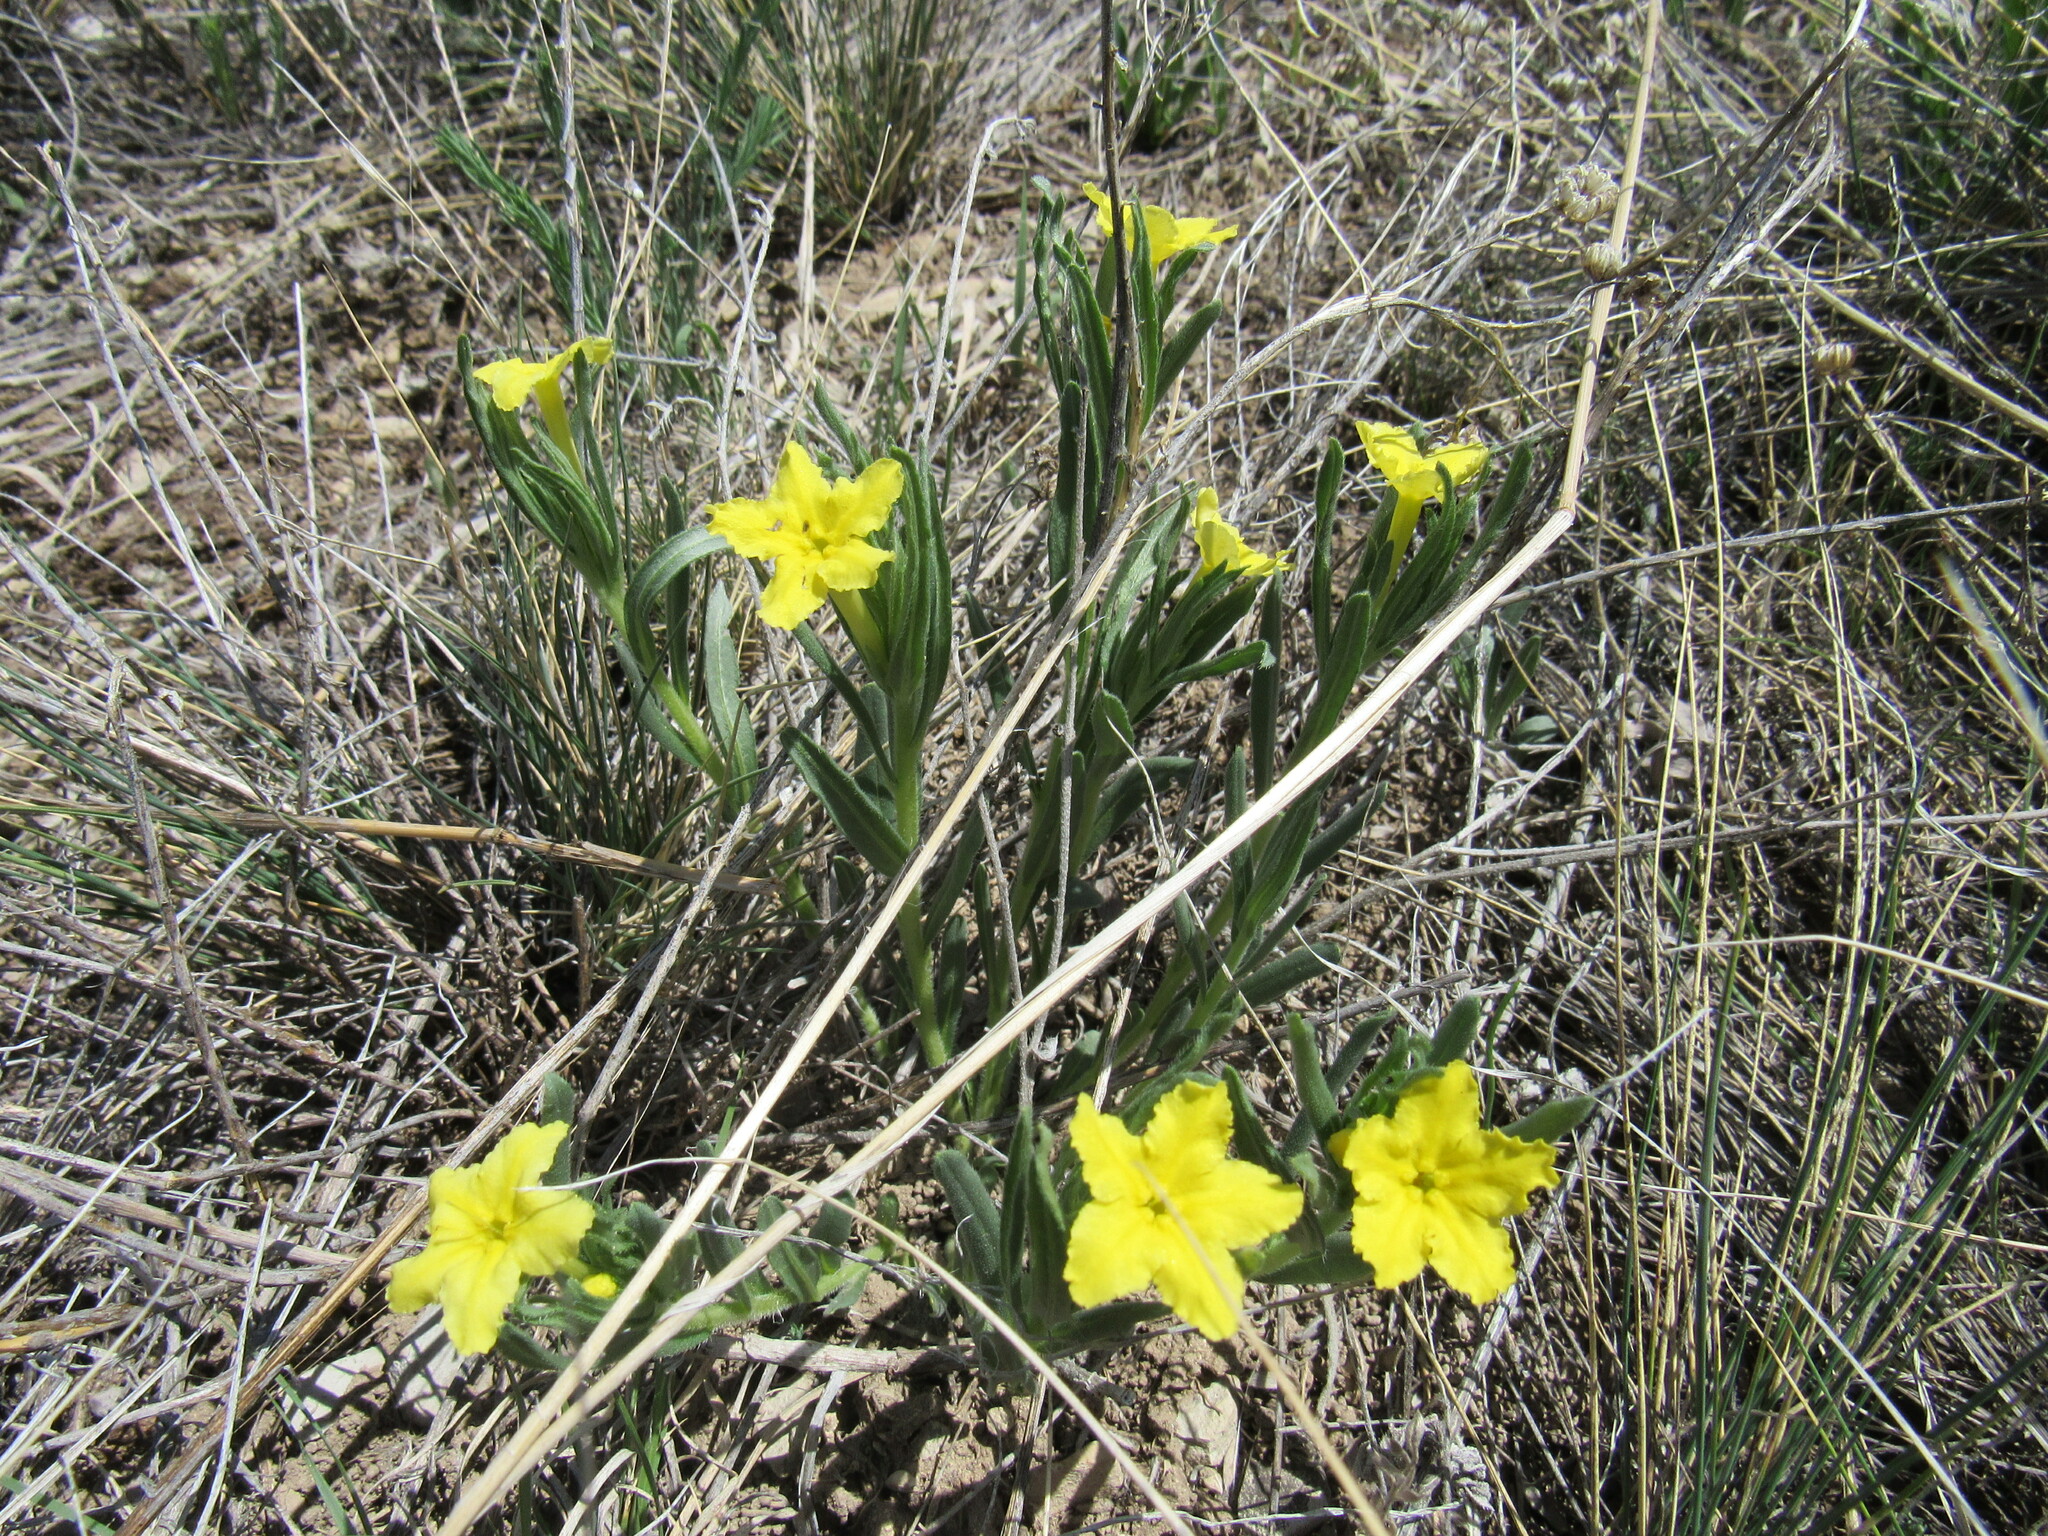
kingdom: Plantae
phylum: Tracheophyta
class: Magnoliopsida
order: Boraginales
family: Boraginaceae
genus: Lithospermum
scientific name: Lithospermum incisum
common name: Fringed gromwell
